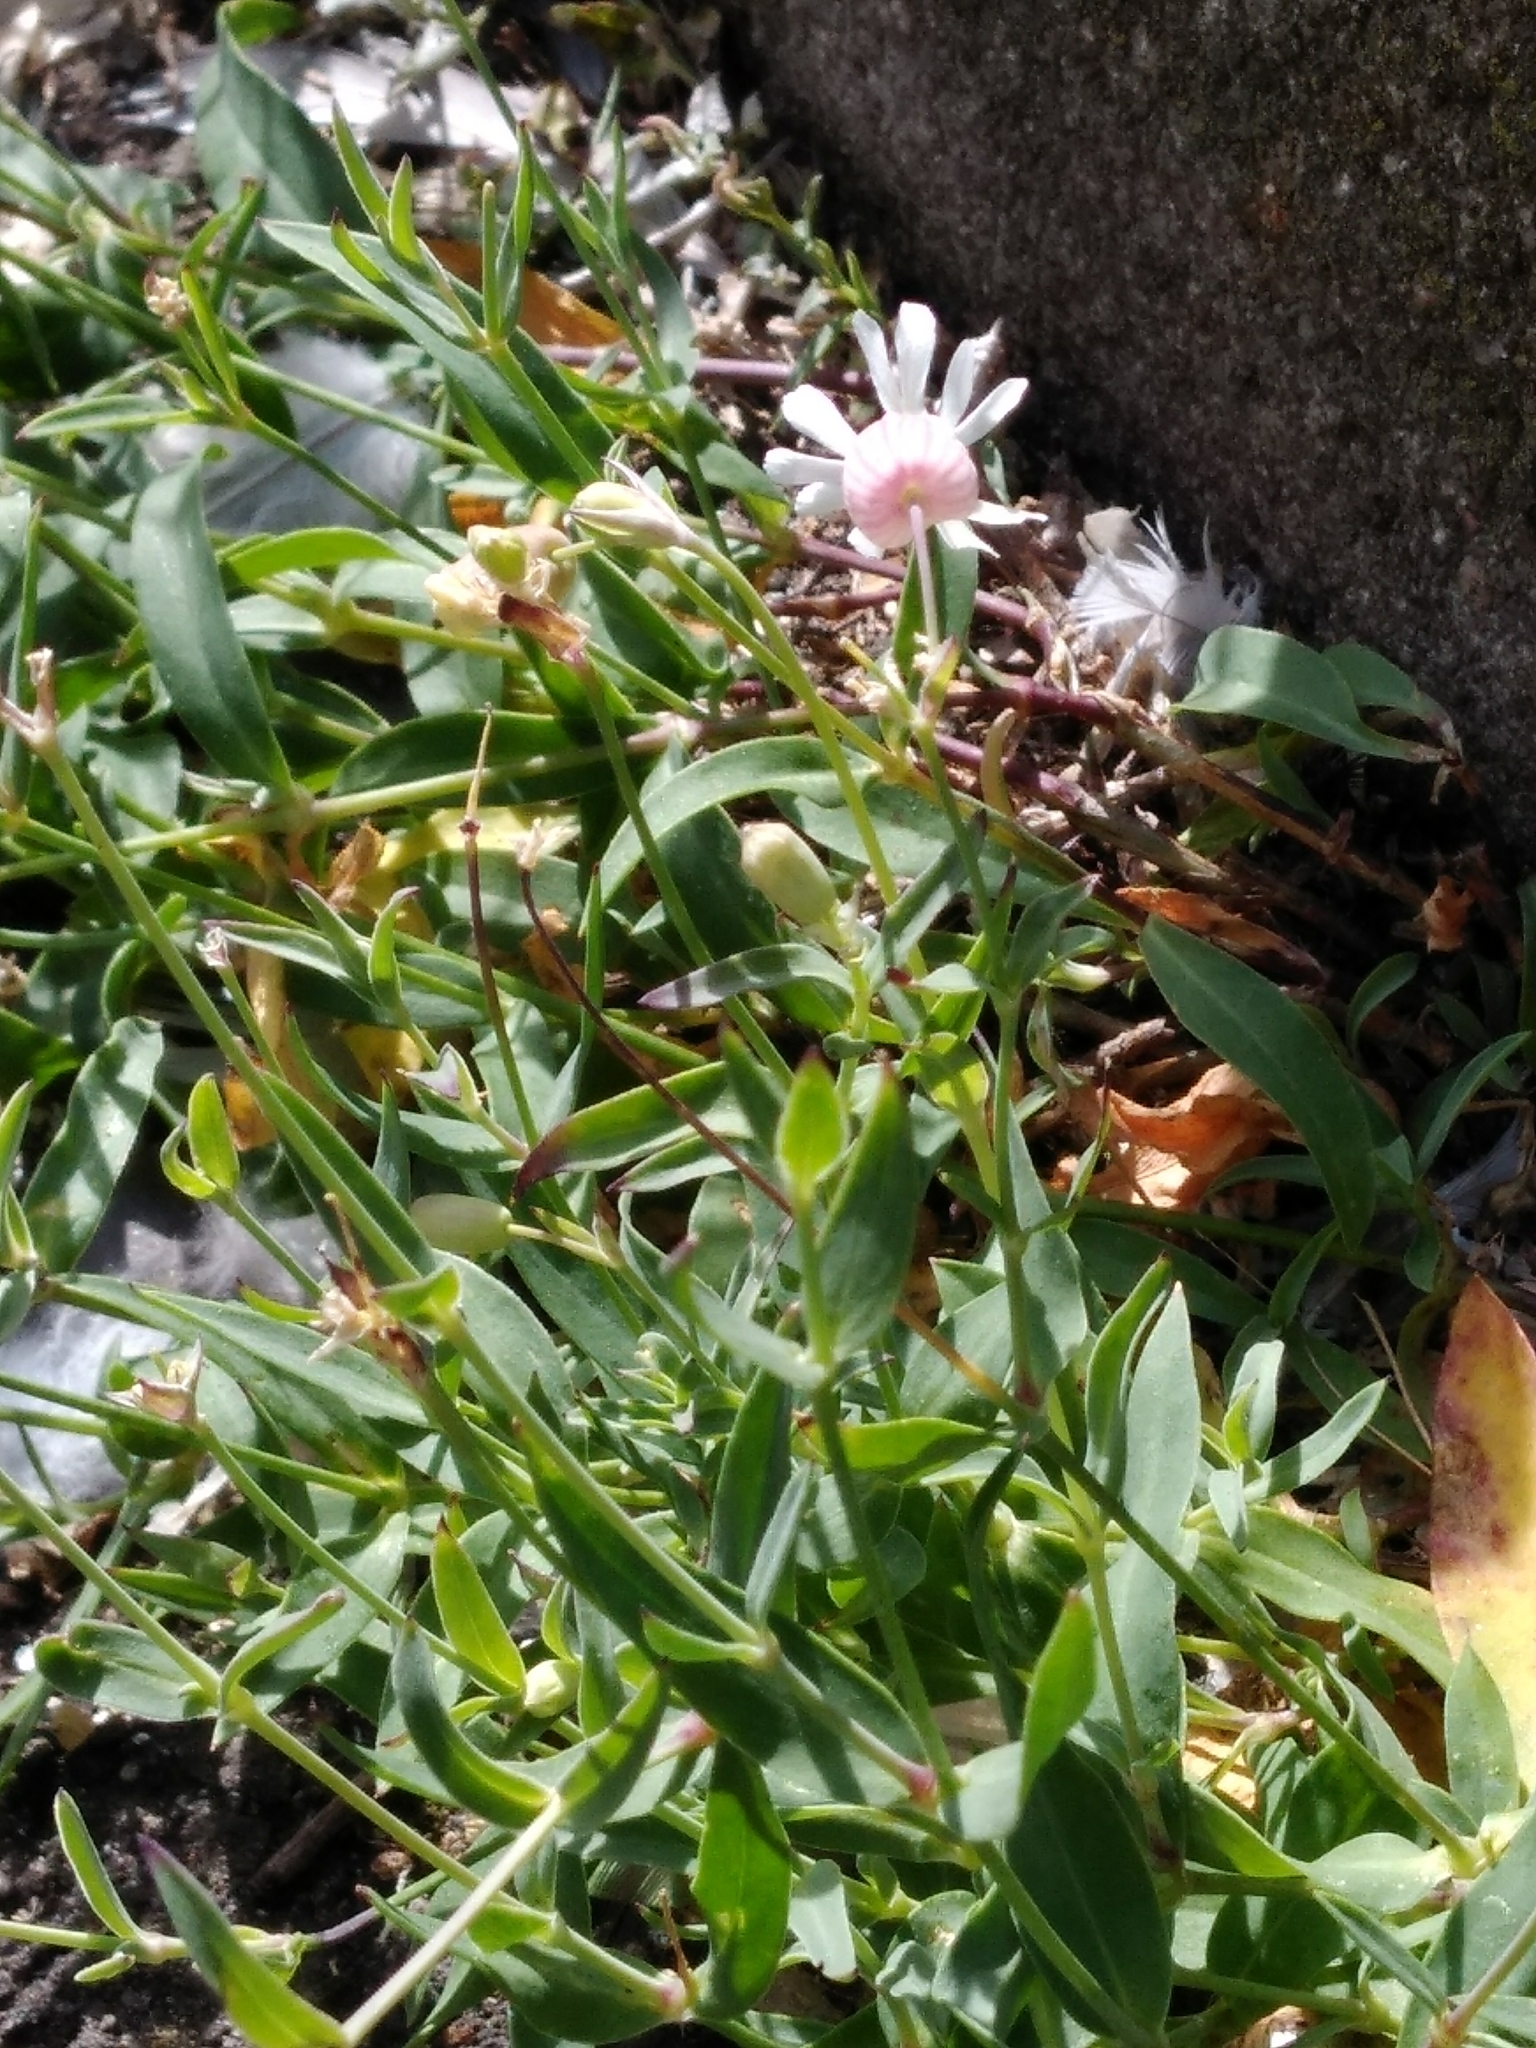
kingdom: Plantae
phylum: Tracheophyta
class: Magnoliopsida
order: Caryophyllales
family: Caryophyllaceae
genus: Silene
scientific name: Silene vulgaris
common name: Bladder campion
